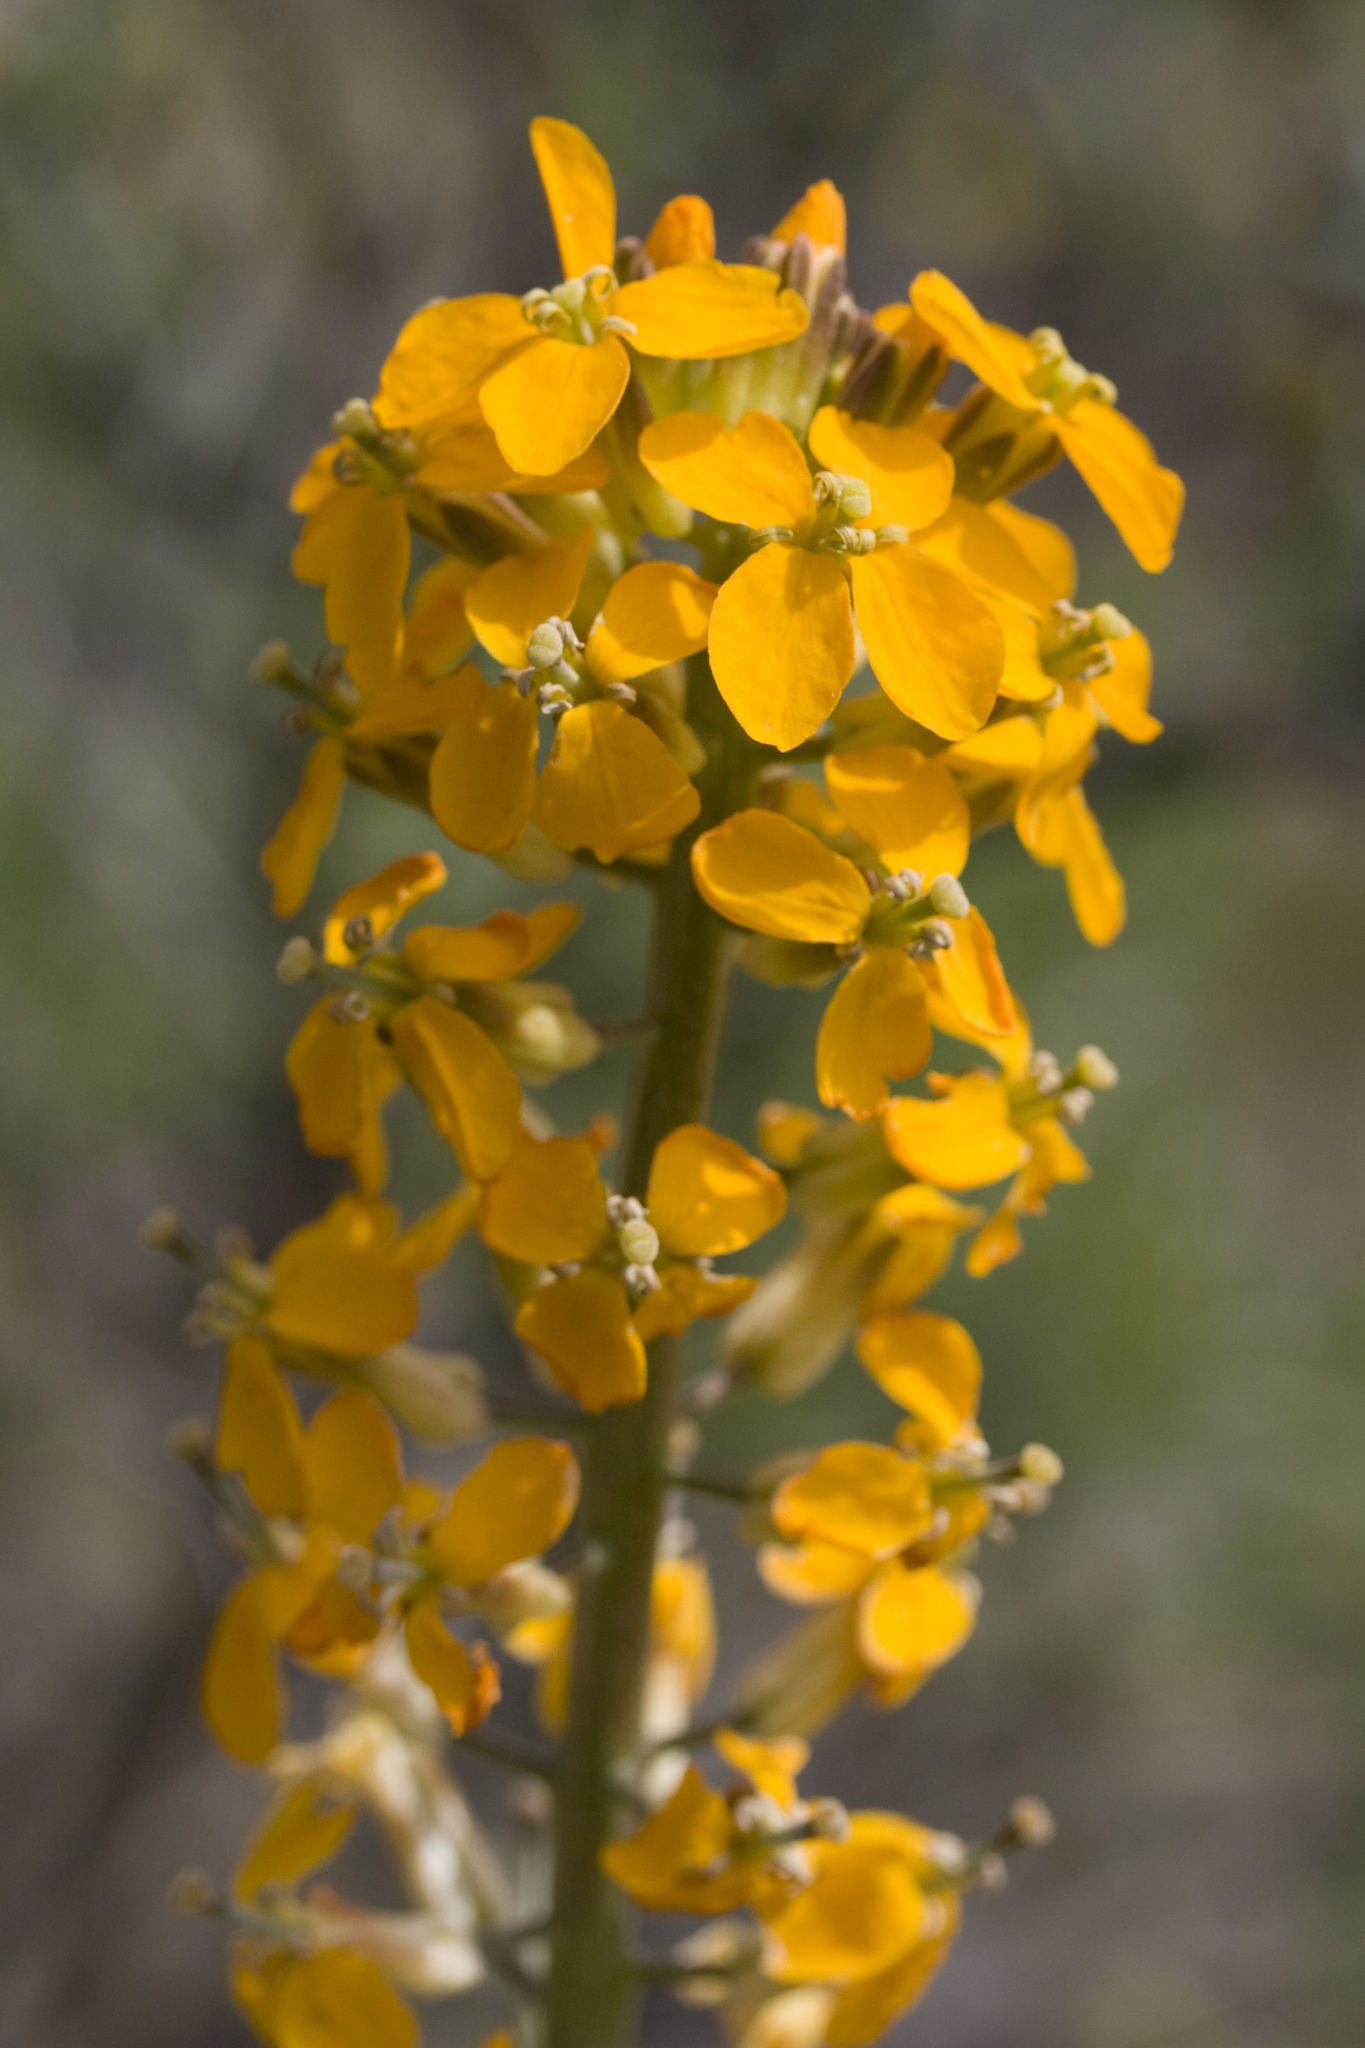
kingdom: Plantae
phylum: Tracheophyta
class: Magnoliopsida
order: Brassicales
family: Brassicaceae
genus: Erysimum
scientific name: Erysimum capitatum
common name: Western wallflower
